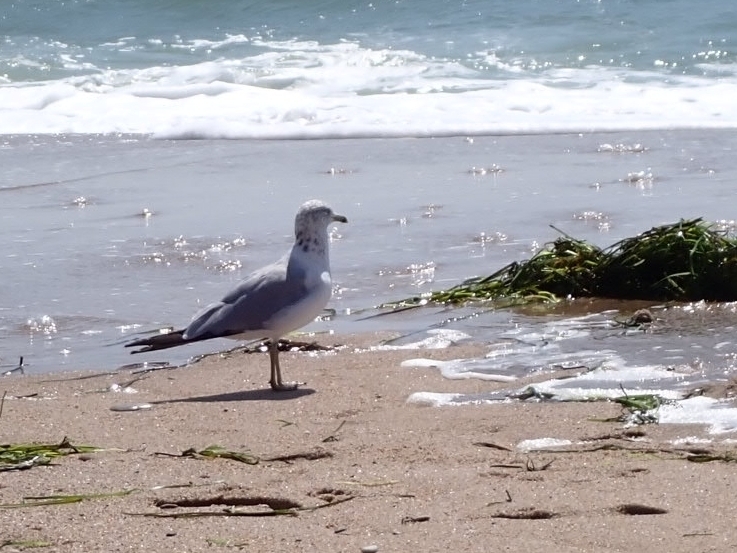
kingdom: Animalia
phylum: Chordata
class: Aves
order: Charadriiformes
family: Laridae
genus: Larus
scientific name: Larus delawarensis
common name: Ring-billed gull
